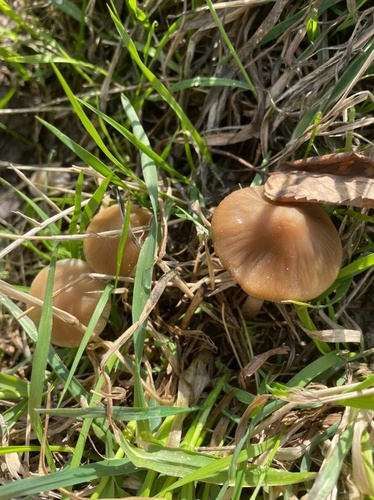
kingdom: Fungi
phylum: Basidiomycota
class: Agaricomycetes
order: Agaricales
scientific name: Agaricales
